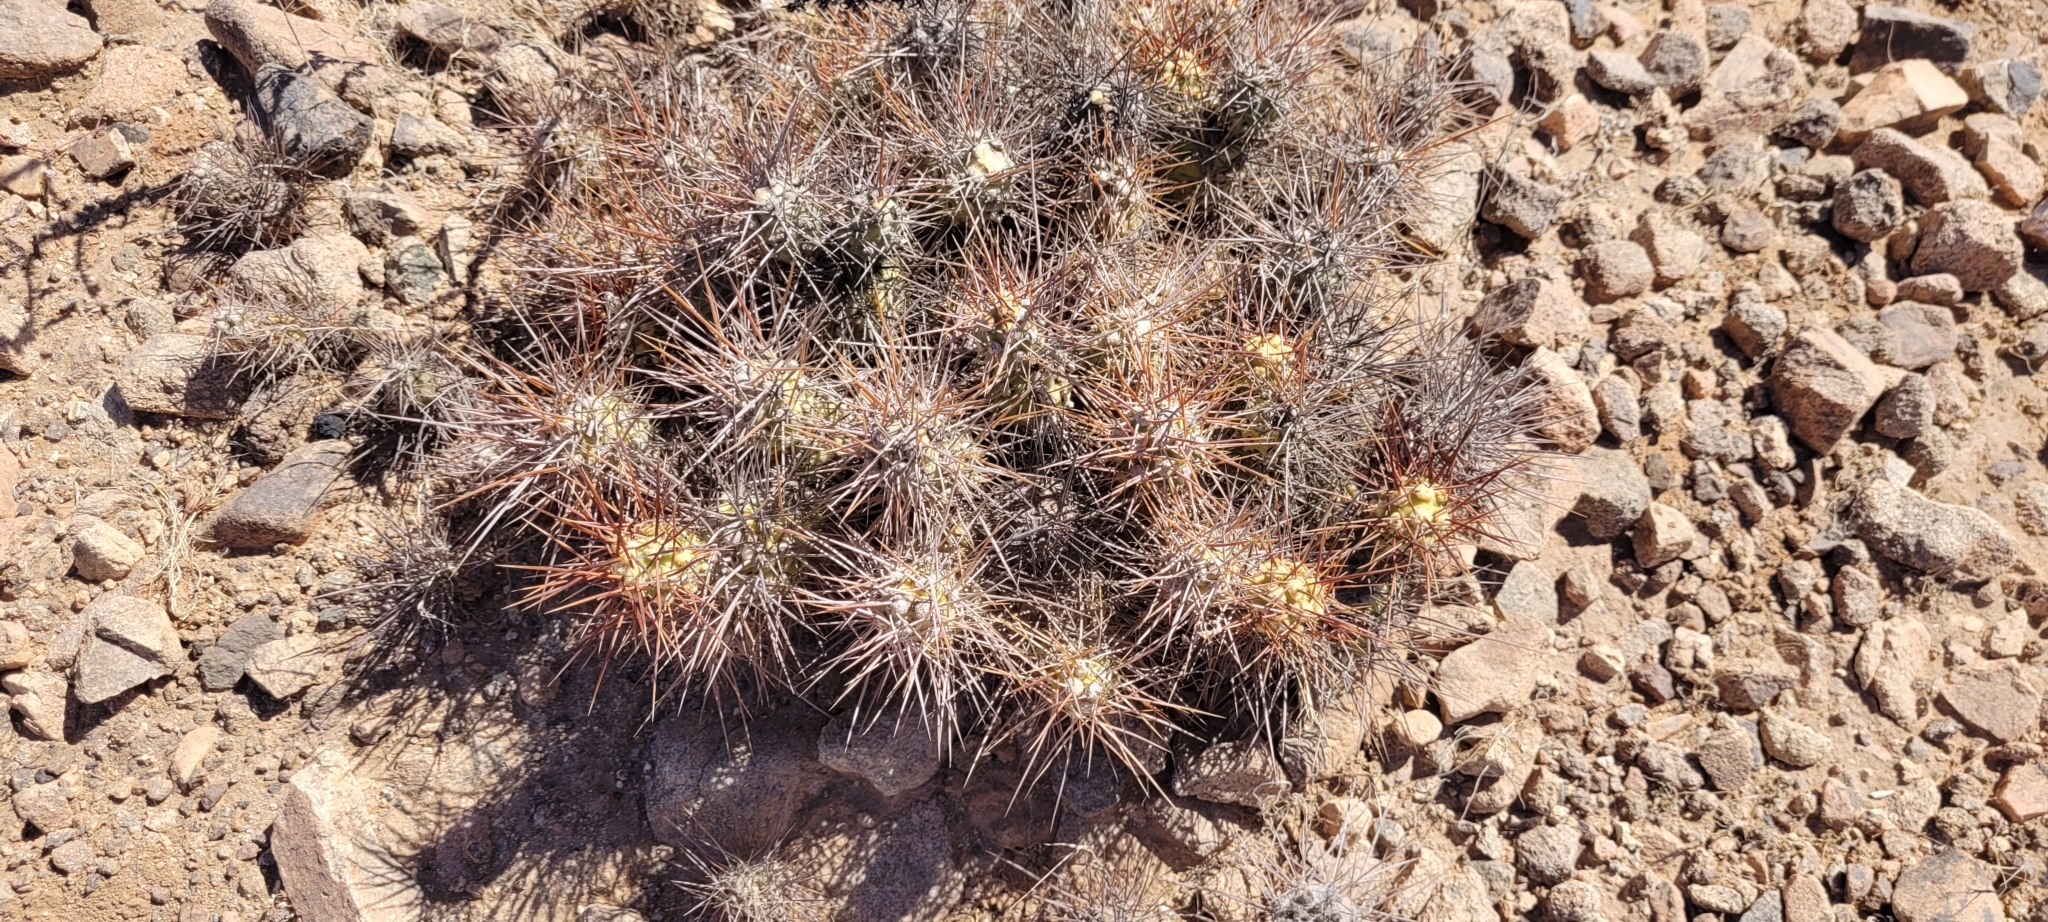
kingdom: Plantae
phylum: Tracheophyta
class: Magnoliopsida
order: Caryophyllales
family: Cactaceae
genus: Cumulopuntia
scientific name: Cumulopuntia leucophaea
